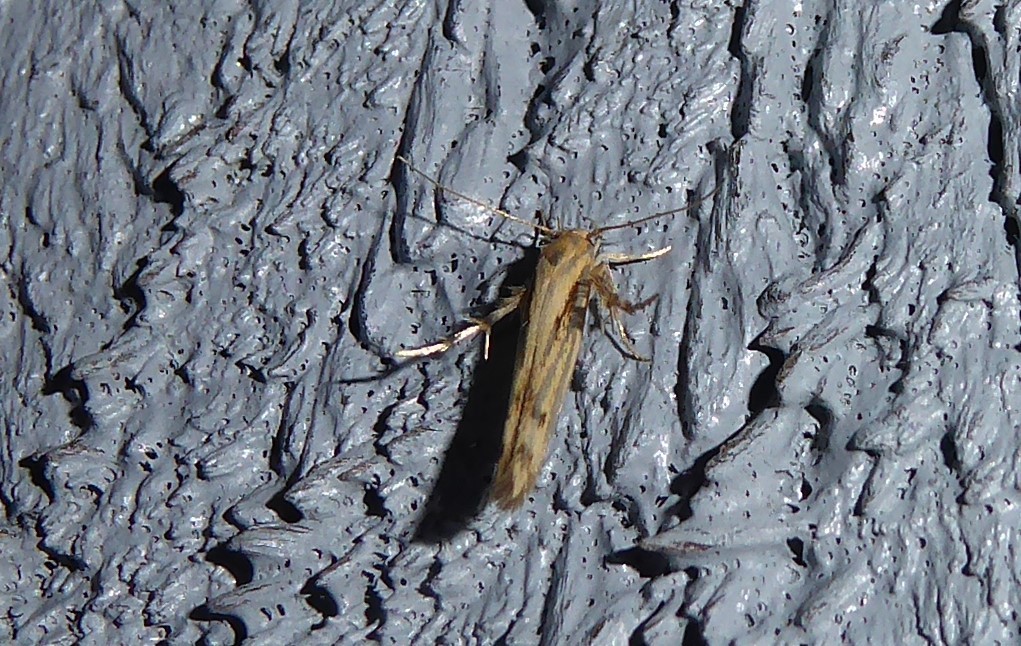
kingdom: Animalia
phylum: Arthropoda
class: Insecta
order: Lepidoptera
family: Stathmopodidae
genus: Stathmopoda
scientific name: Stathmopoda plumbiflua
